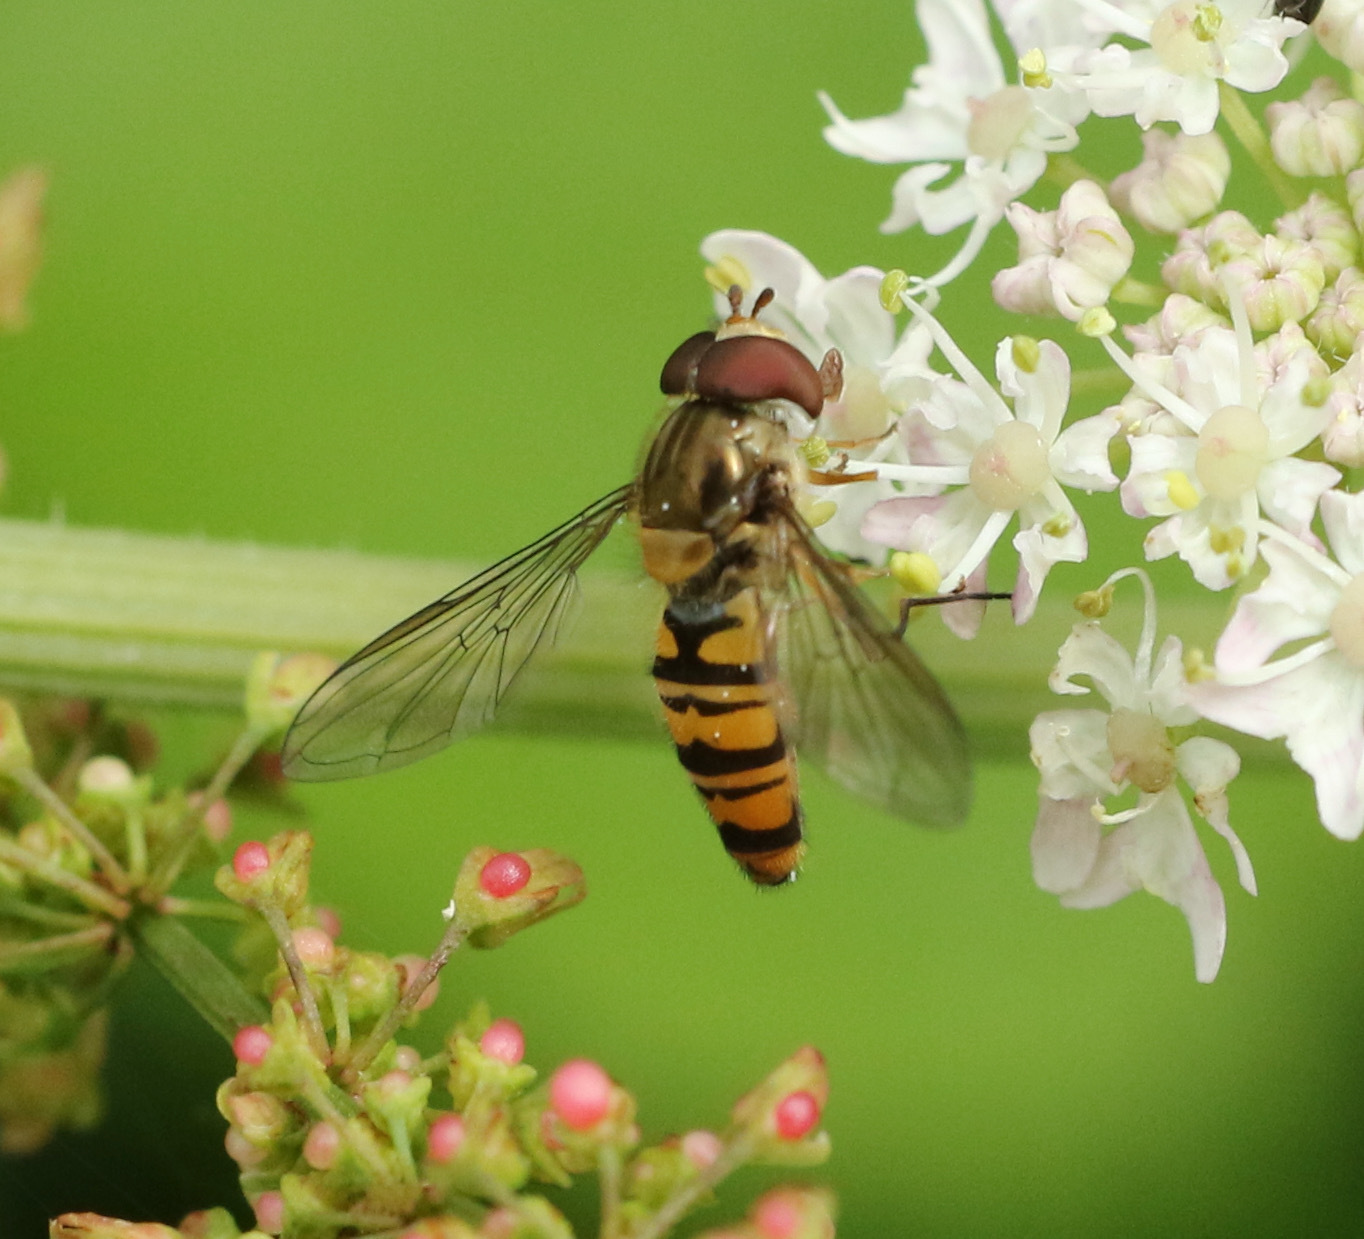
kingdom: Animalia
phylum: Arthropoda
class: Insecta
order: Diptera
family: Syrphidae
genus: Episyrphus
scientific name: Episyrphus balteatus
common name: Marmalade hoverfly
